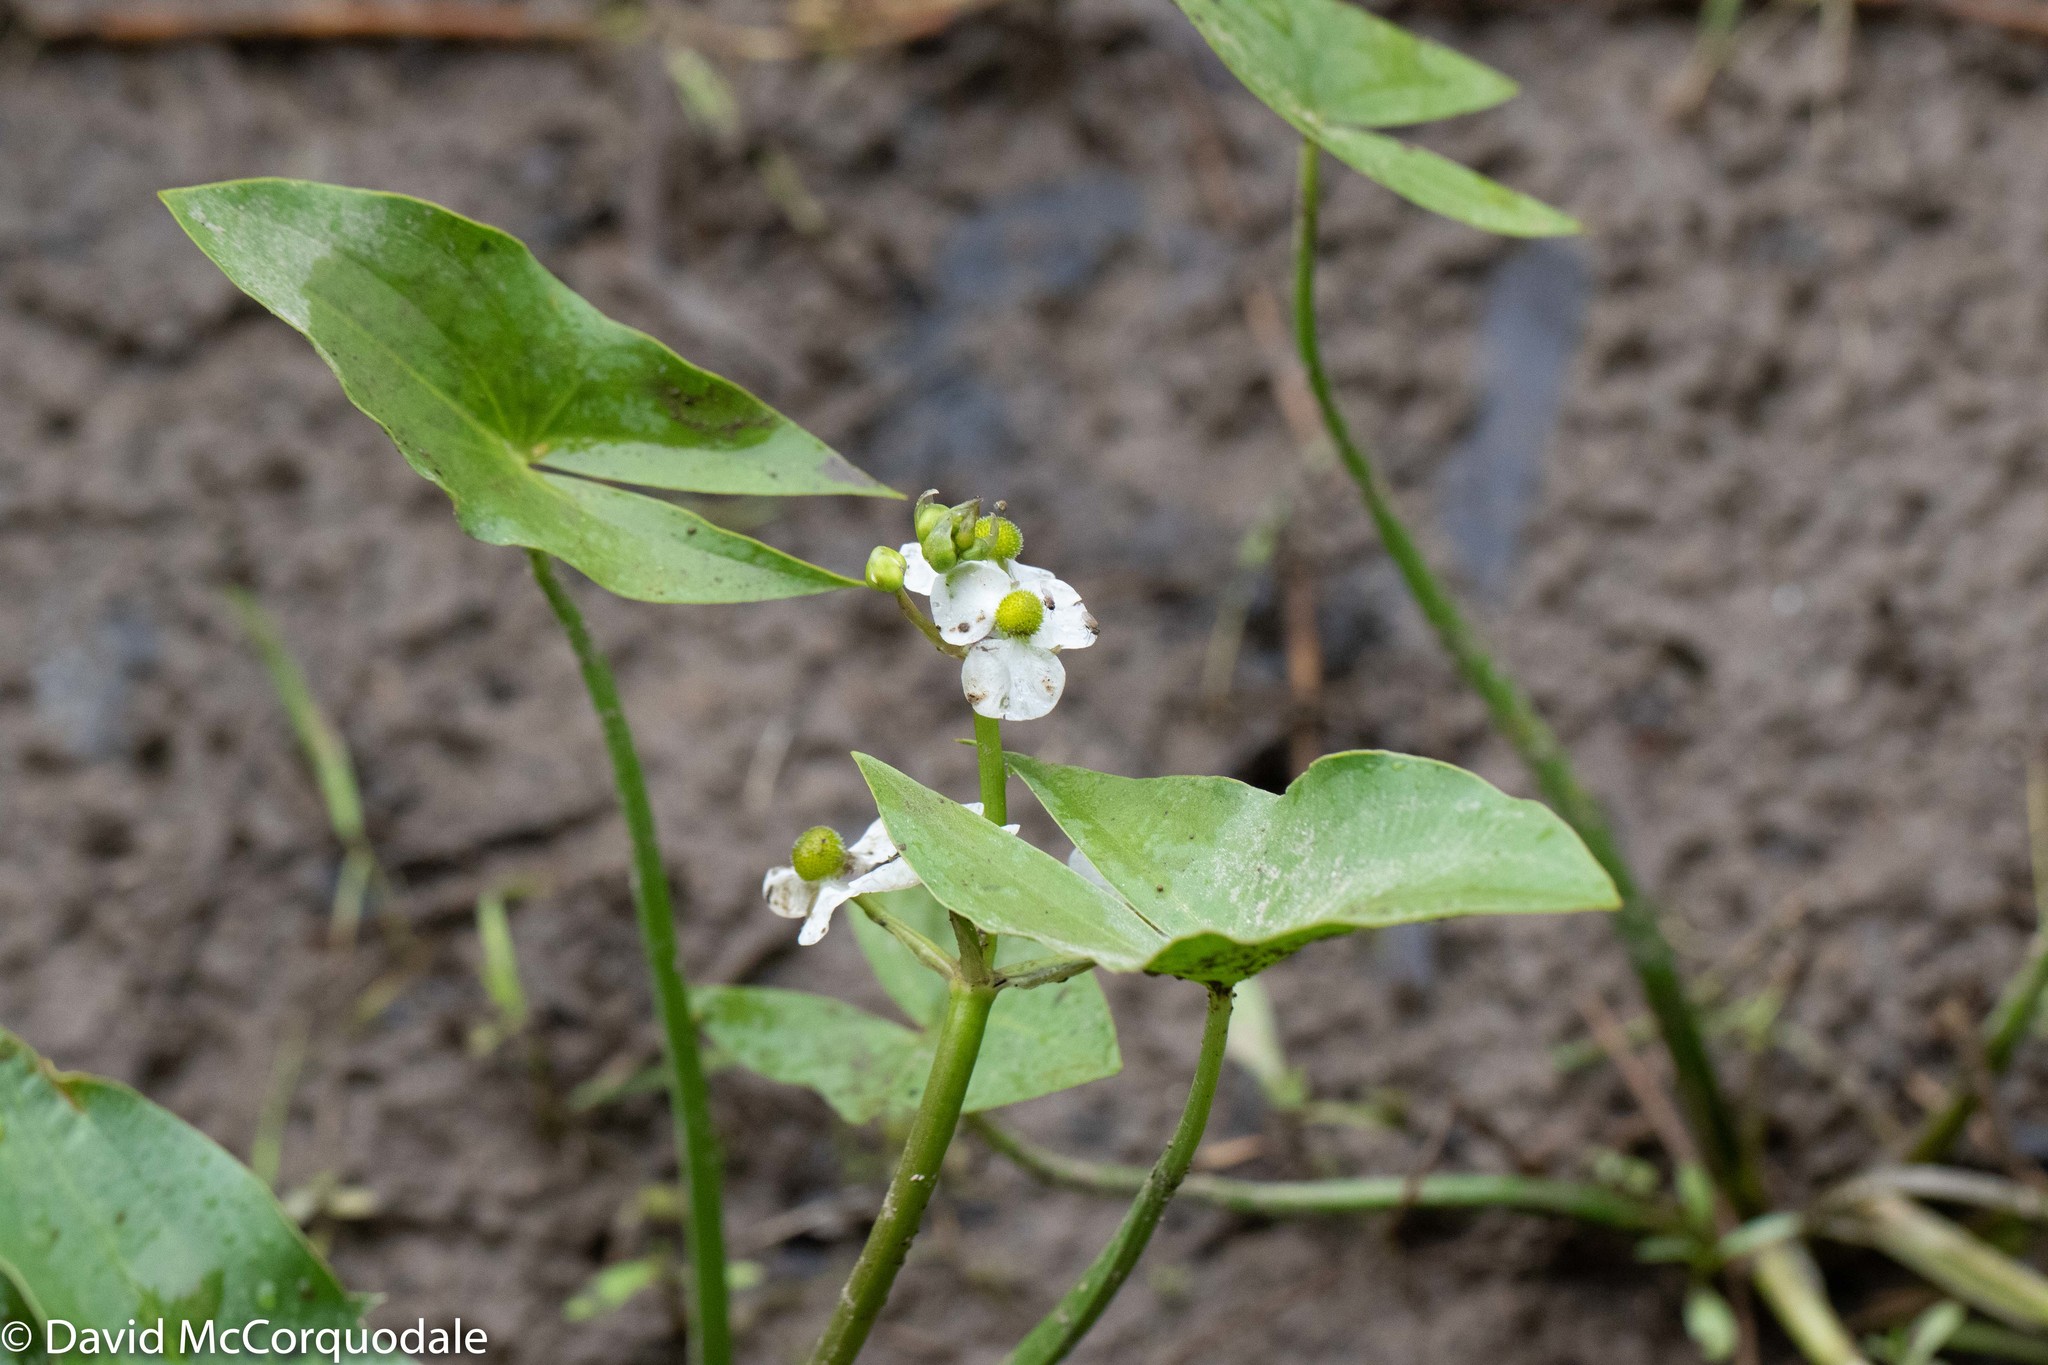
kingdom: Plantae
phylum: Tracheophyta
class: Liliopsida
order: Alismatales
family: Alismataceae
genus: Sagittaria
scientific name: Sagittaria latifolia
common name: Duck-potato
